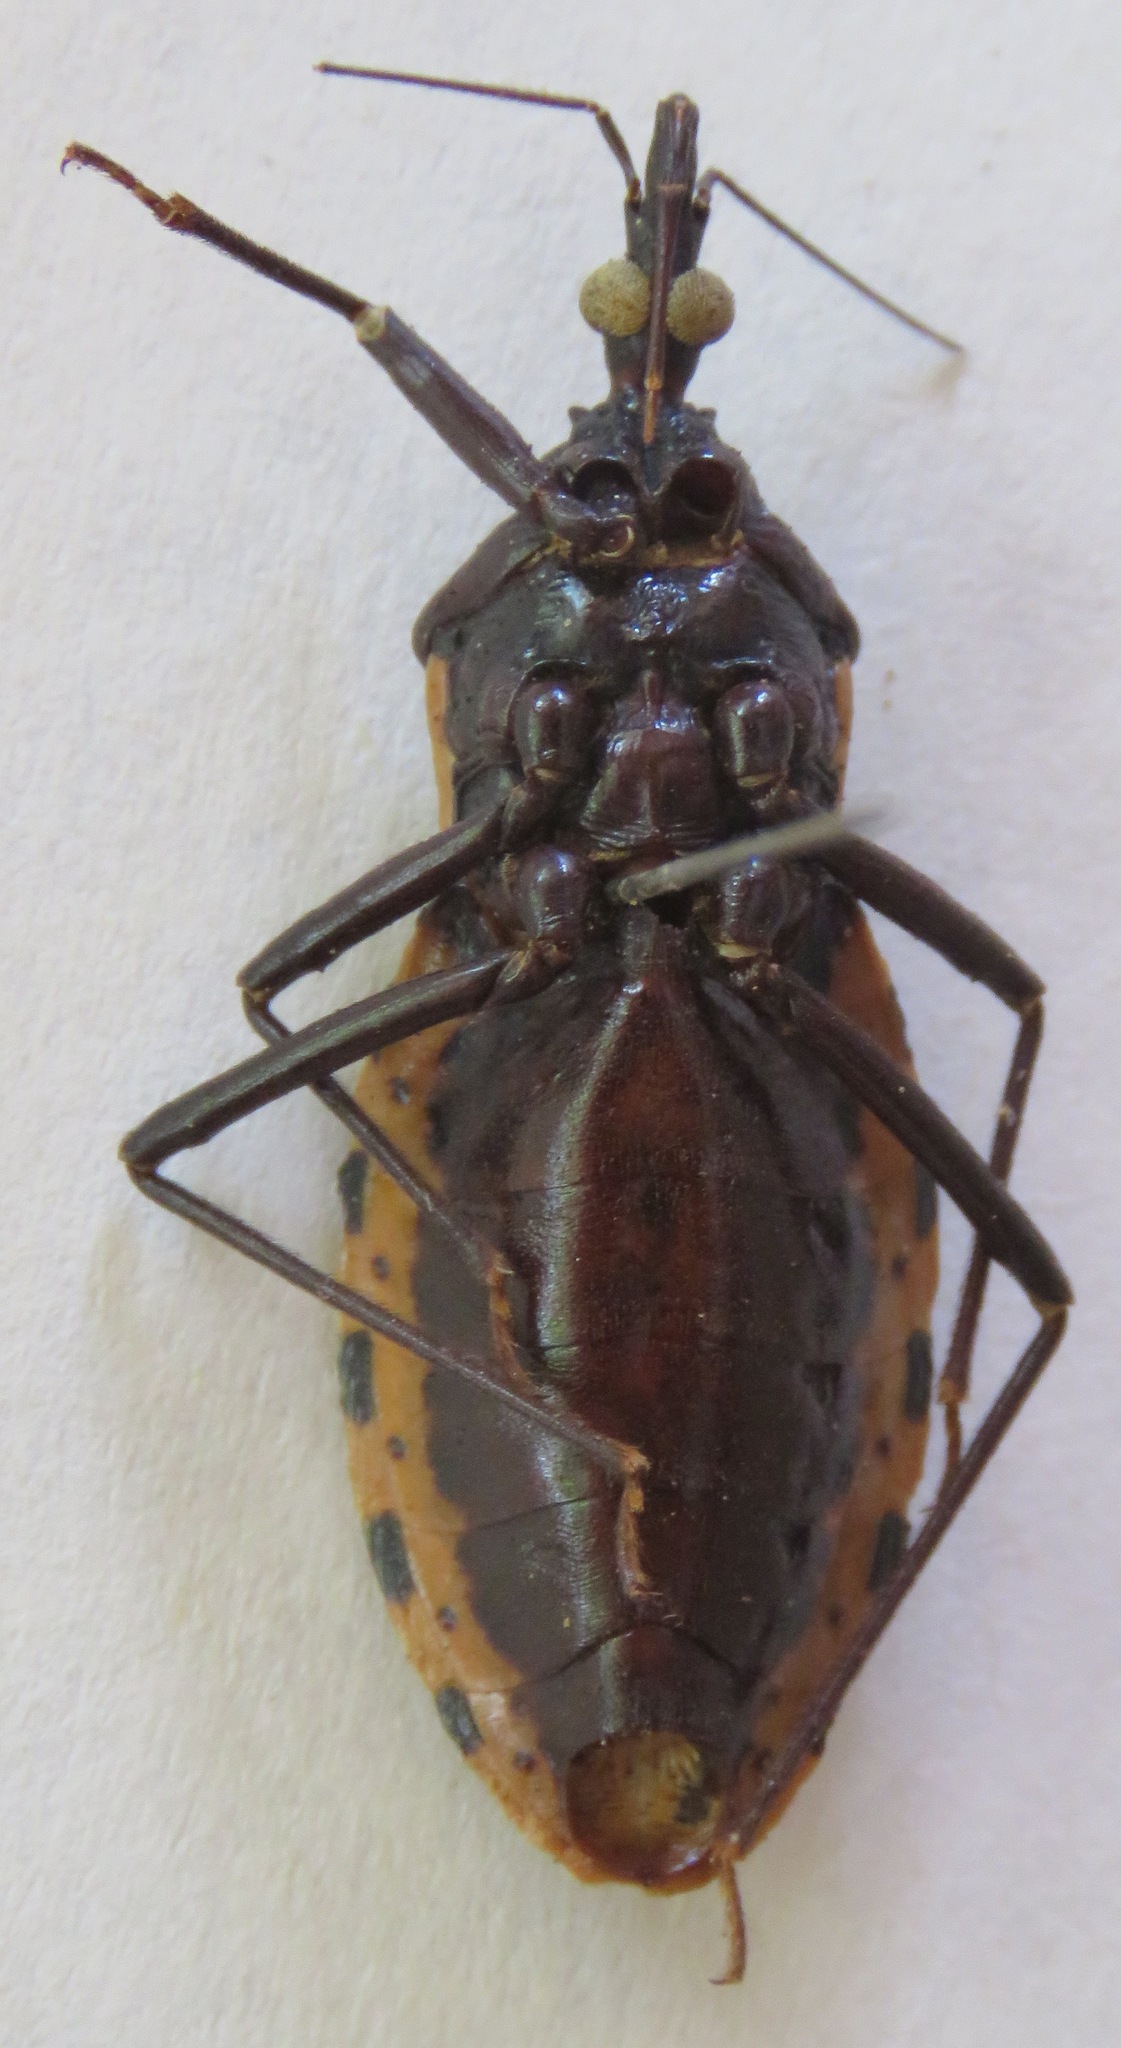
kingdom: Animalia
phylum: Arthropoda
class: Insecta
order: Hemiptera
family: Reduviidae
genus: Meccus
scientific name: Meccus dimidiatus
